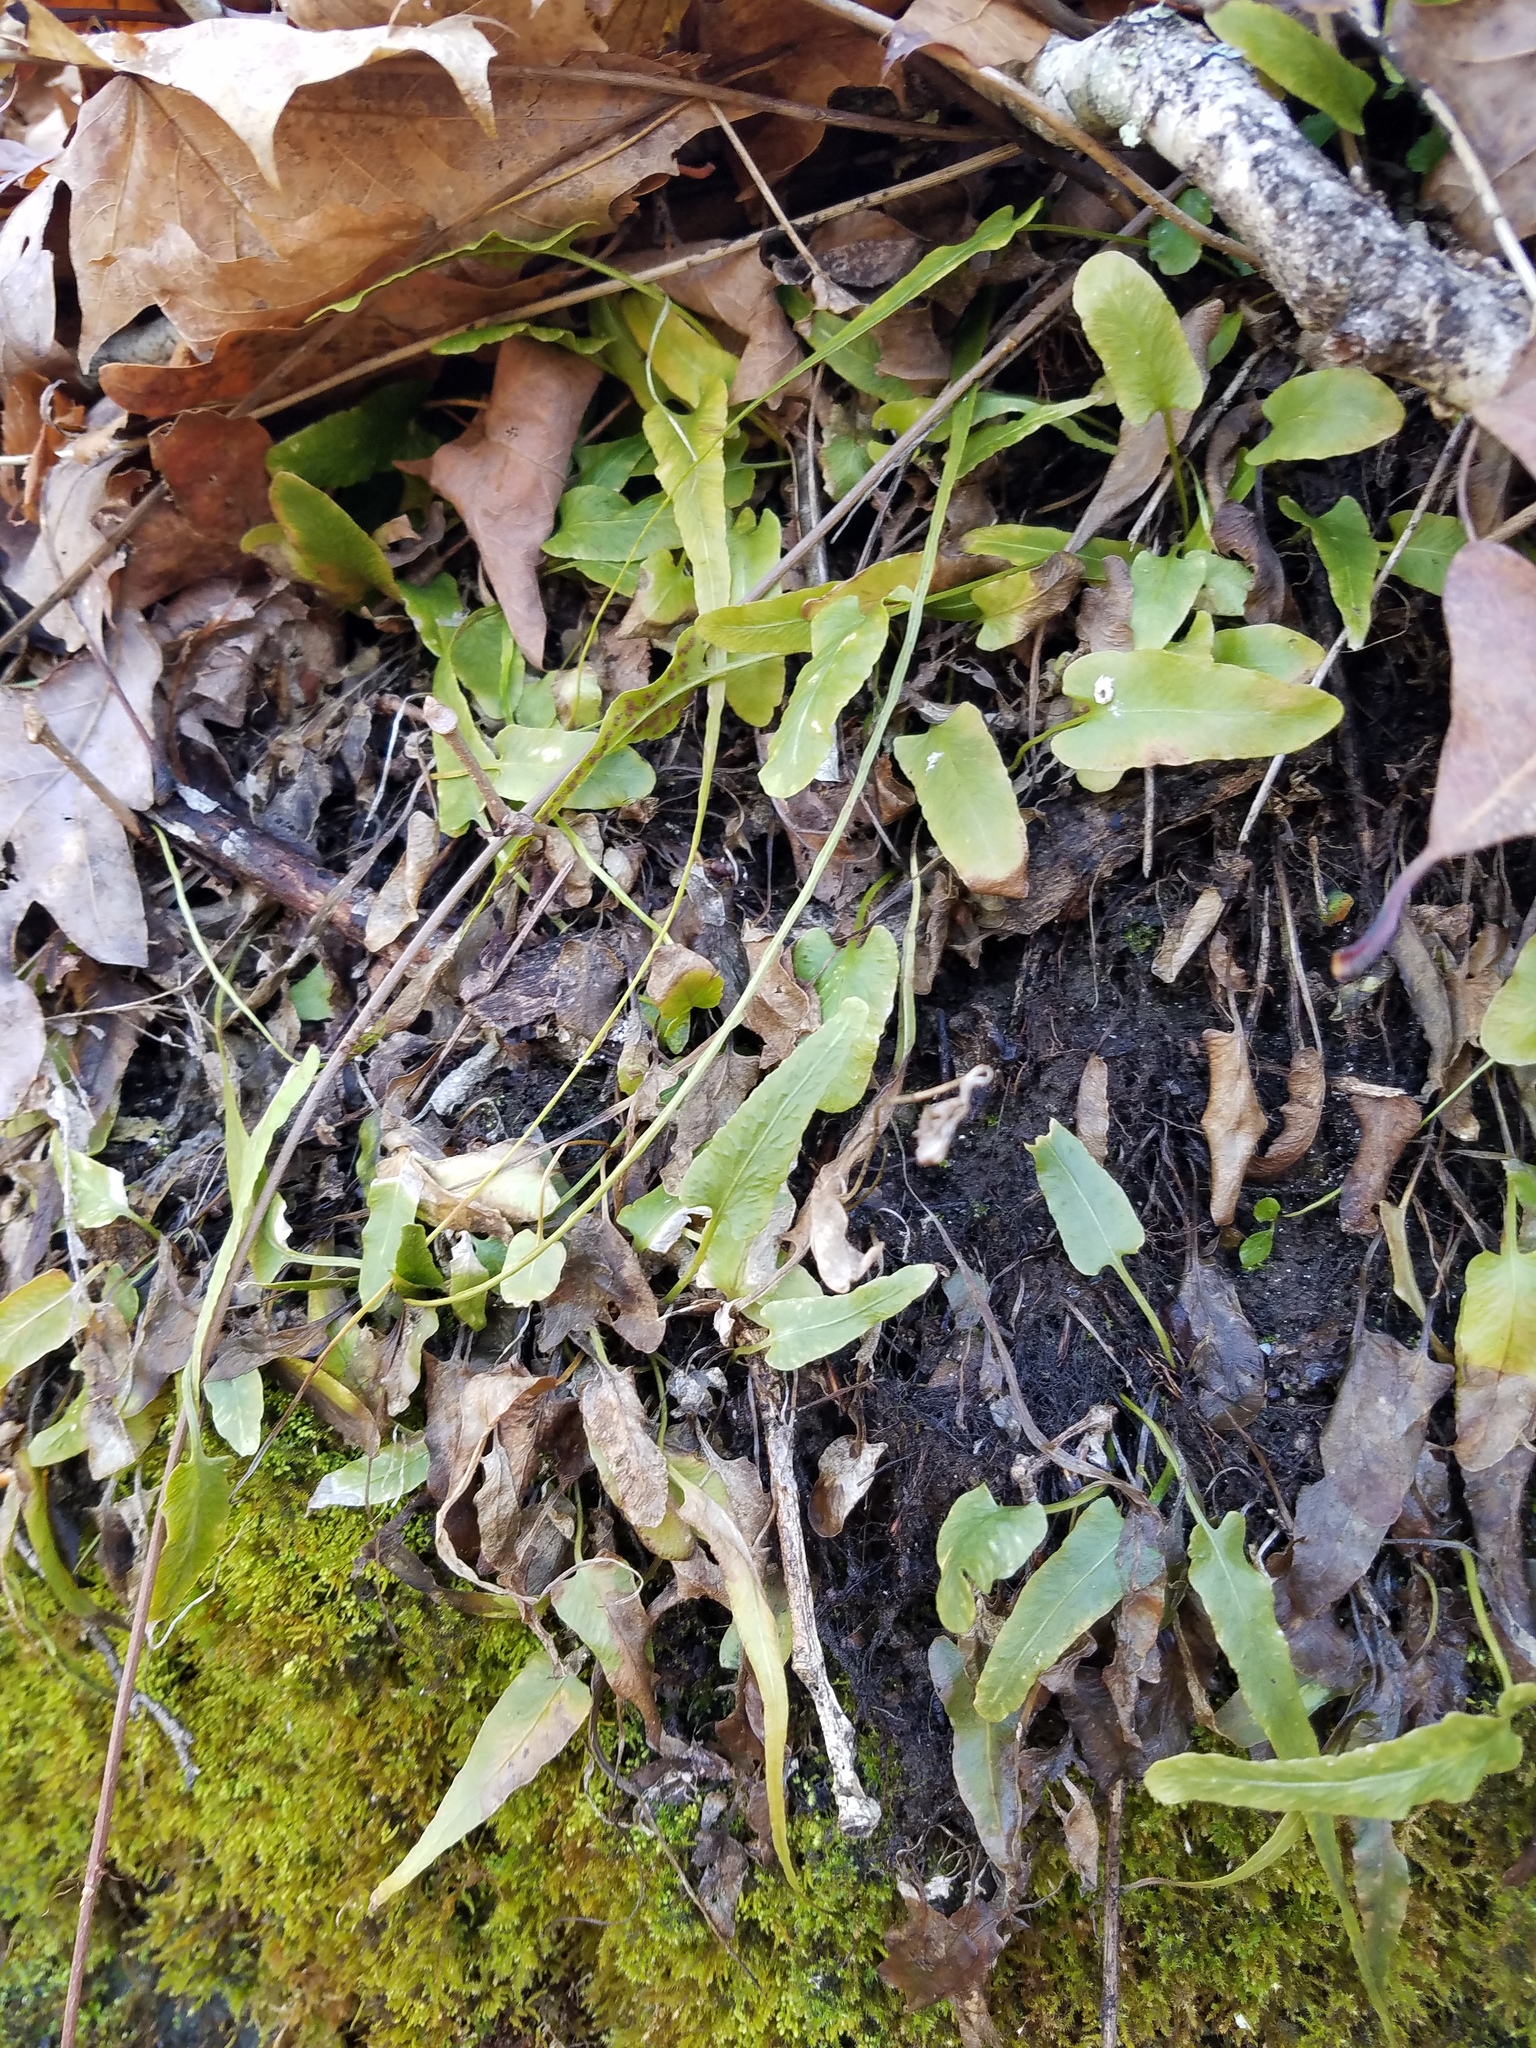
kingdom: Plantae
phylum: Tracheophyta
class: Polypodiopsida
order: Polypodiales
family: Aspleniaceae
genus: Asplenium
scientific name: Asplenium rhizophyllum
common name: Walking fern
